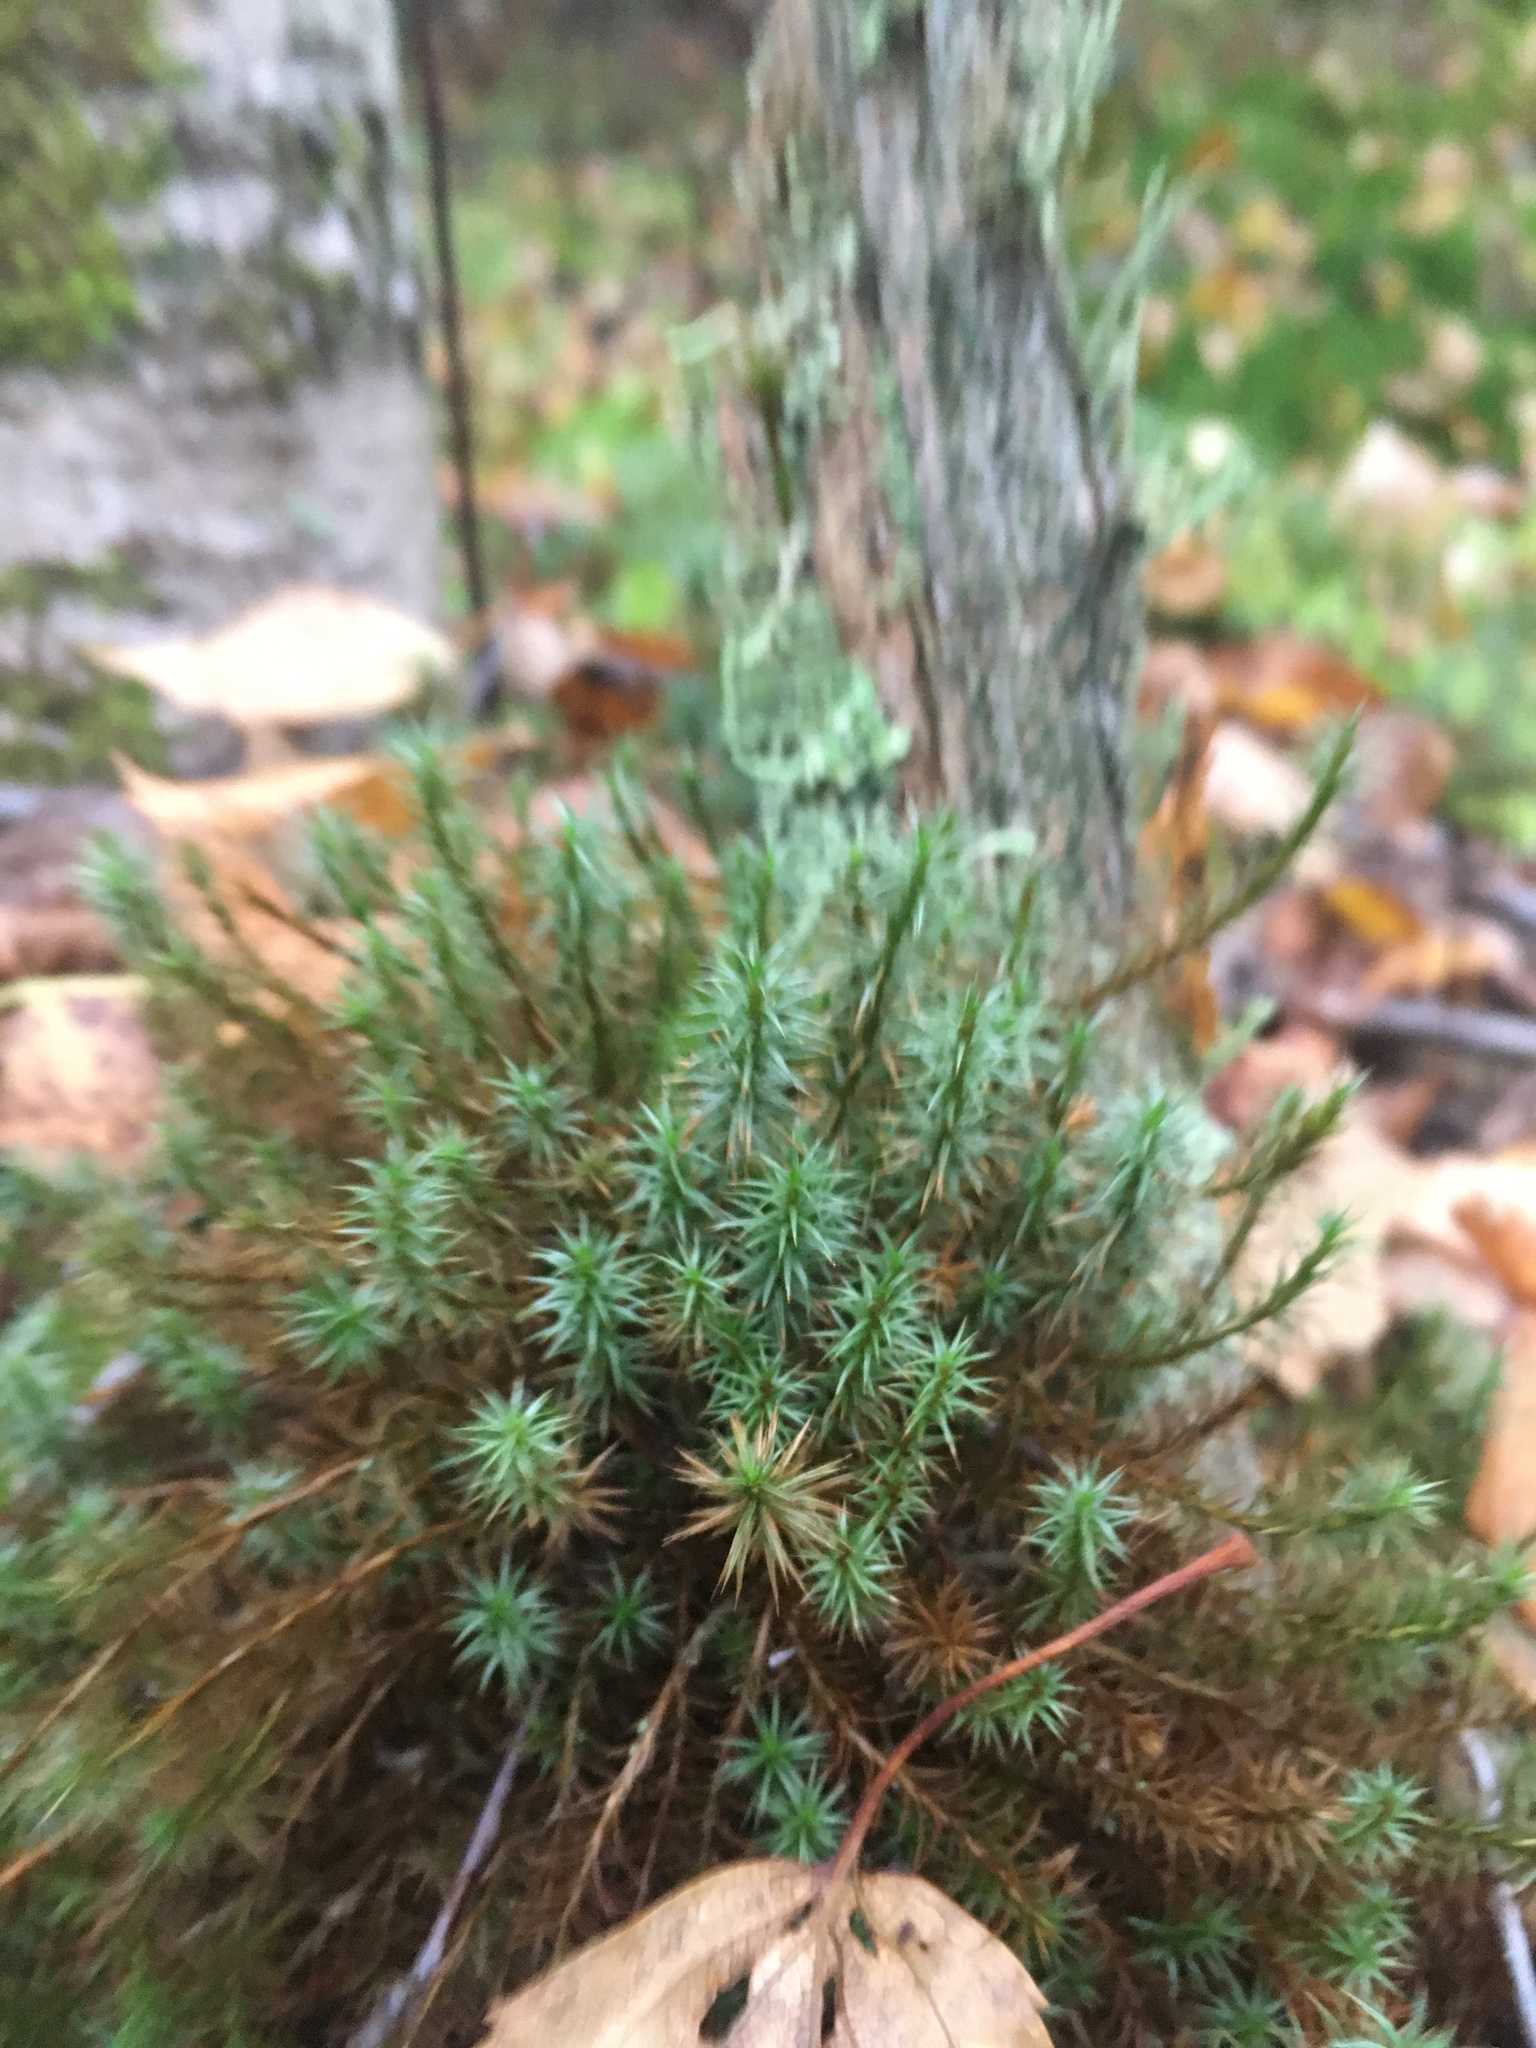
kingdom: Plantae
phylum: Bryophyta
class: Polytrichopsida
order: Polytrichales
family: Polytrichaceae
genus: Polytrichum
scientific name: Polytrichum commune
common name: Common haircap
